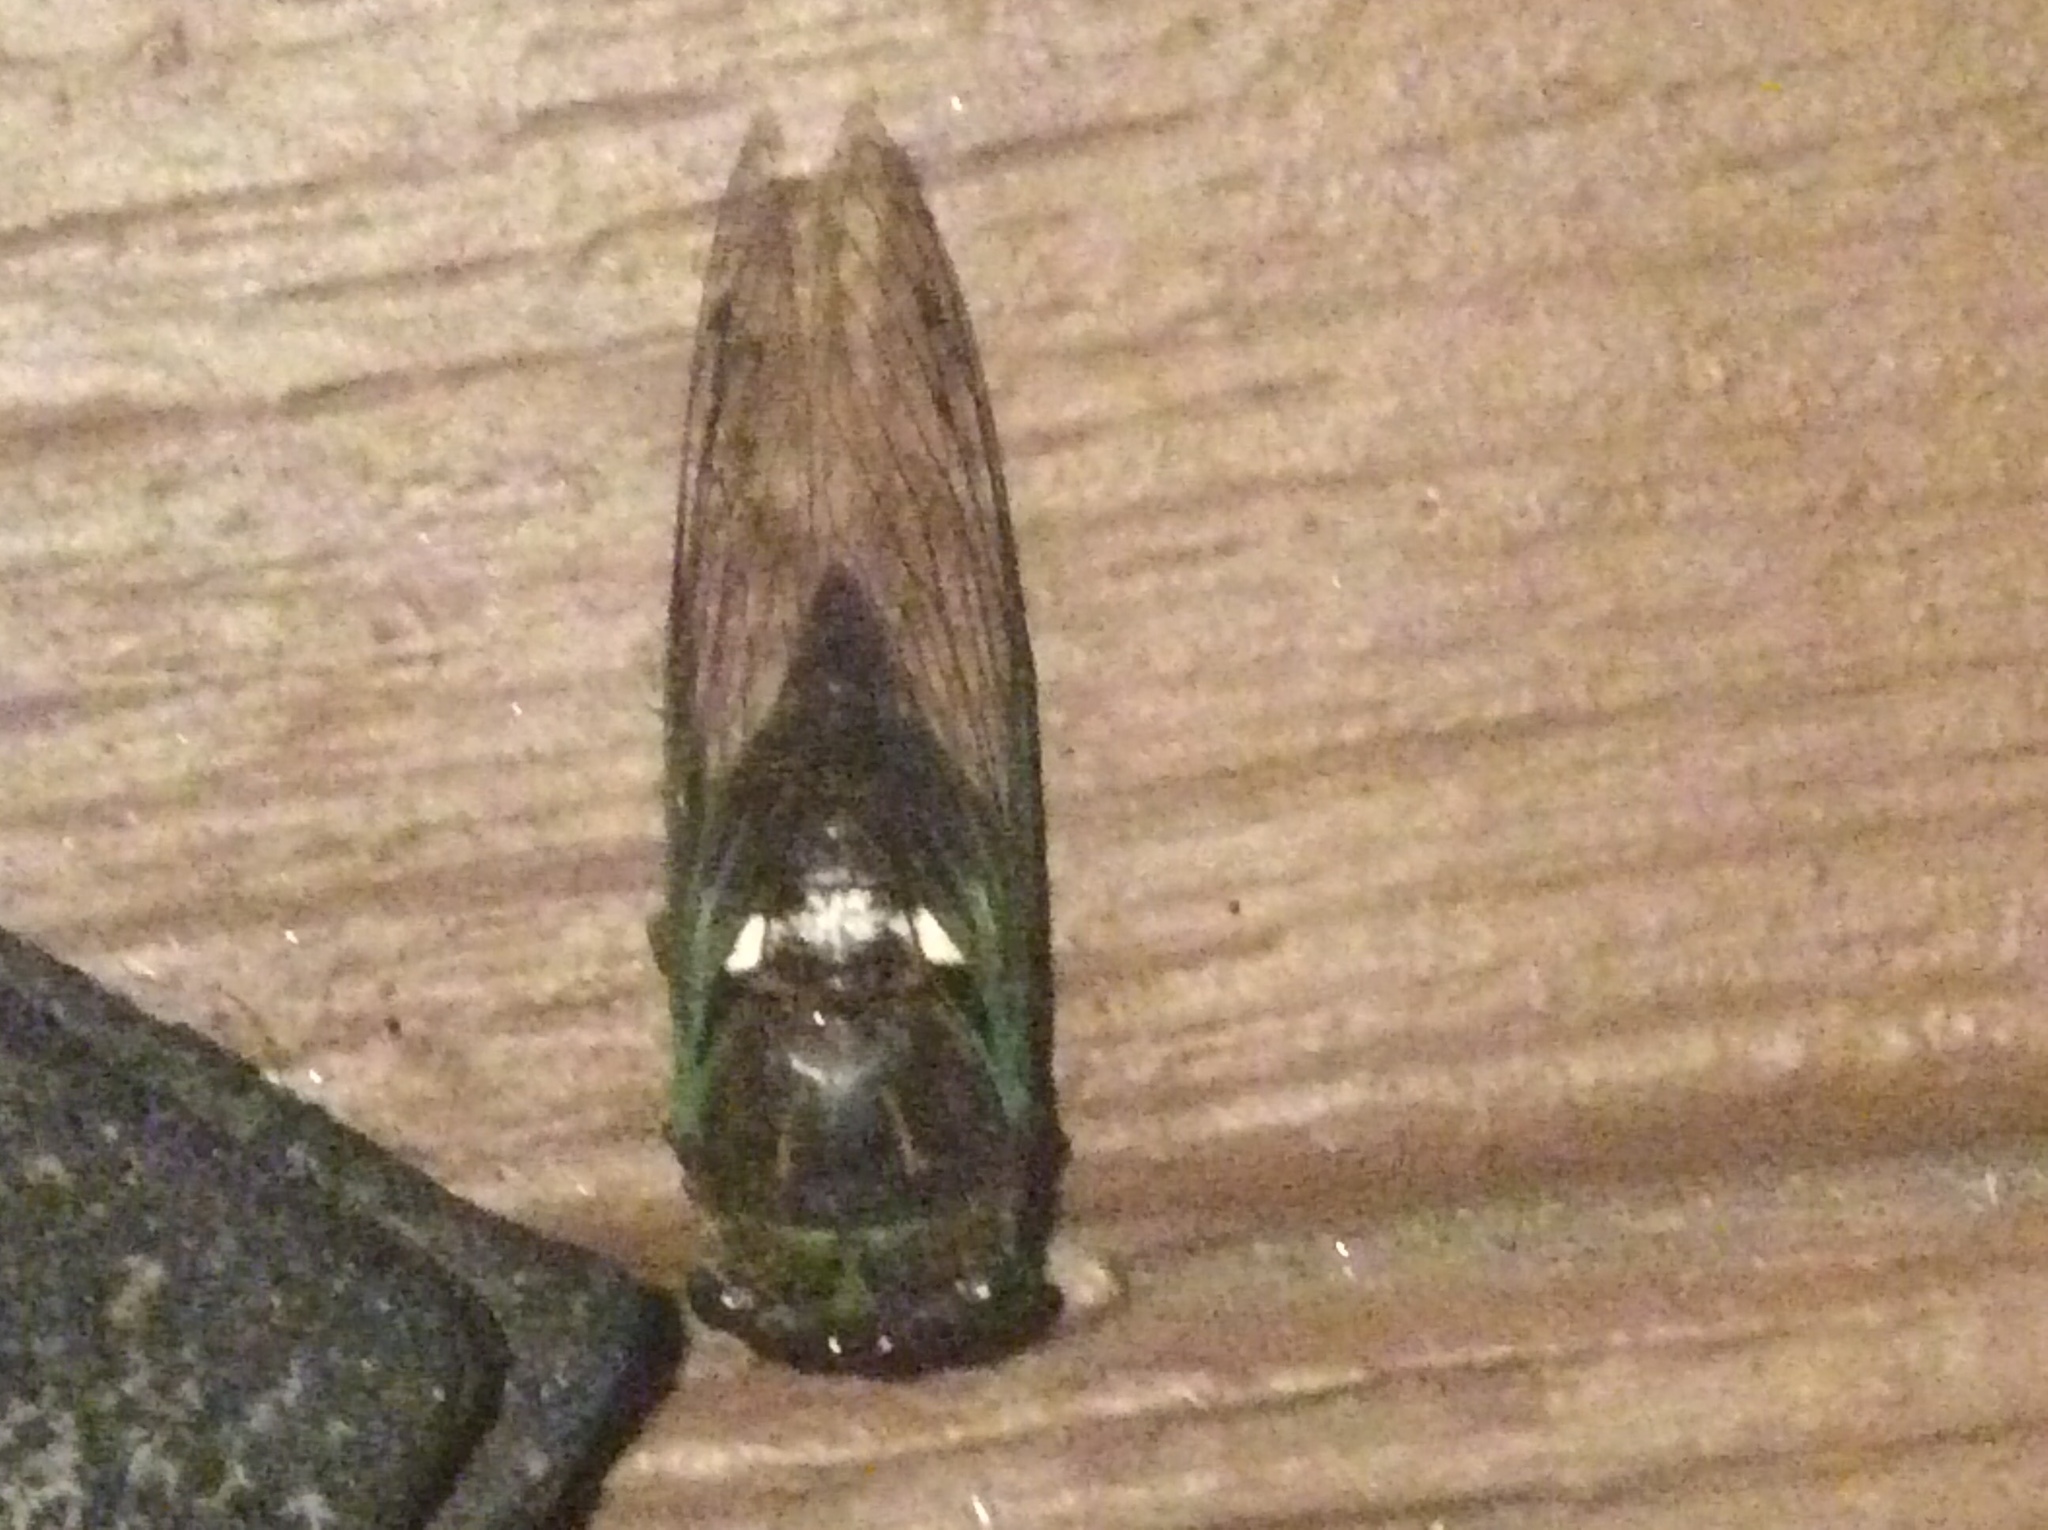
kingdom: Animalia
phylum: Arthropoda
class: Insecta
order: Hemiptera
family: Cicadidae
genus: Neotibicen
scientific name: Neotibicen tibicen
